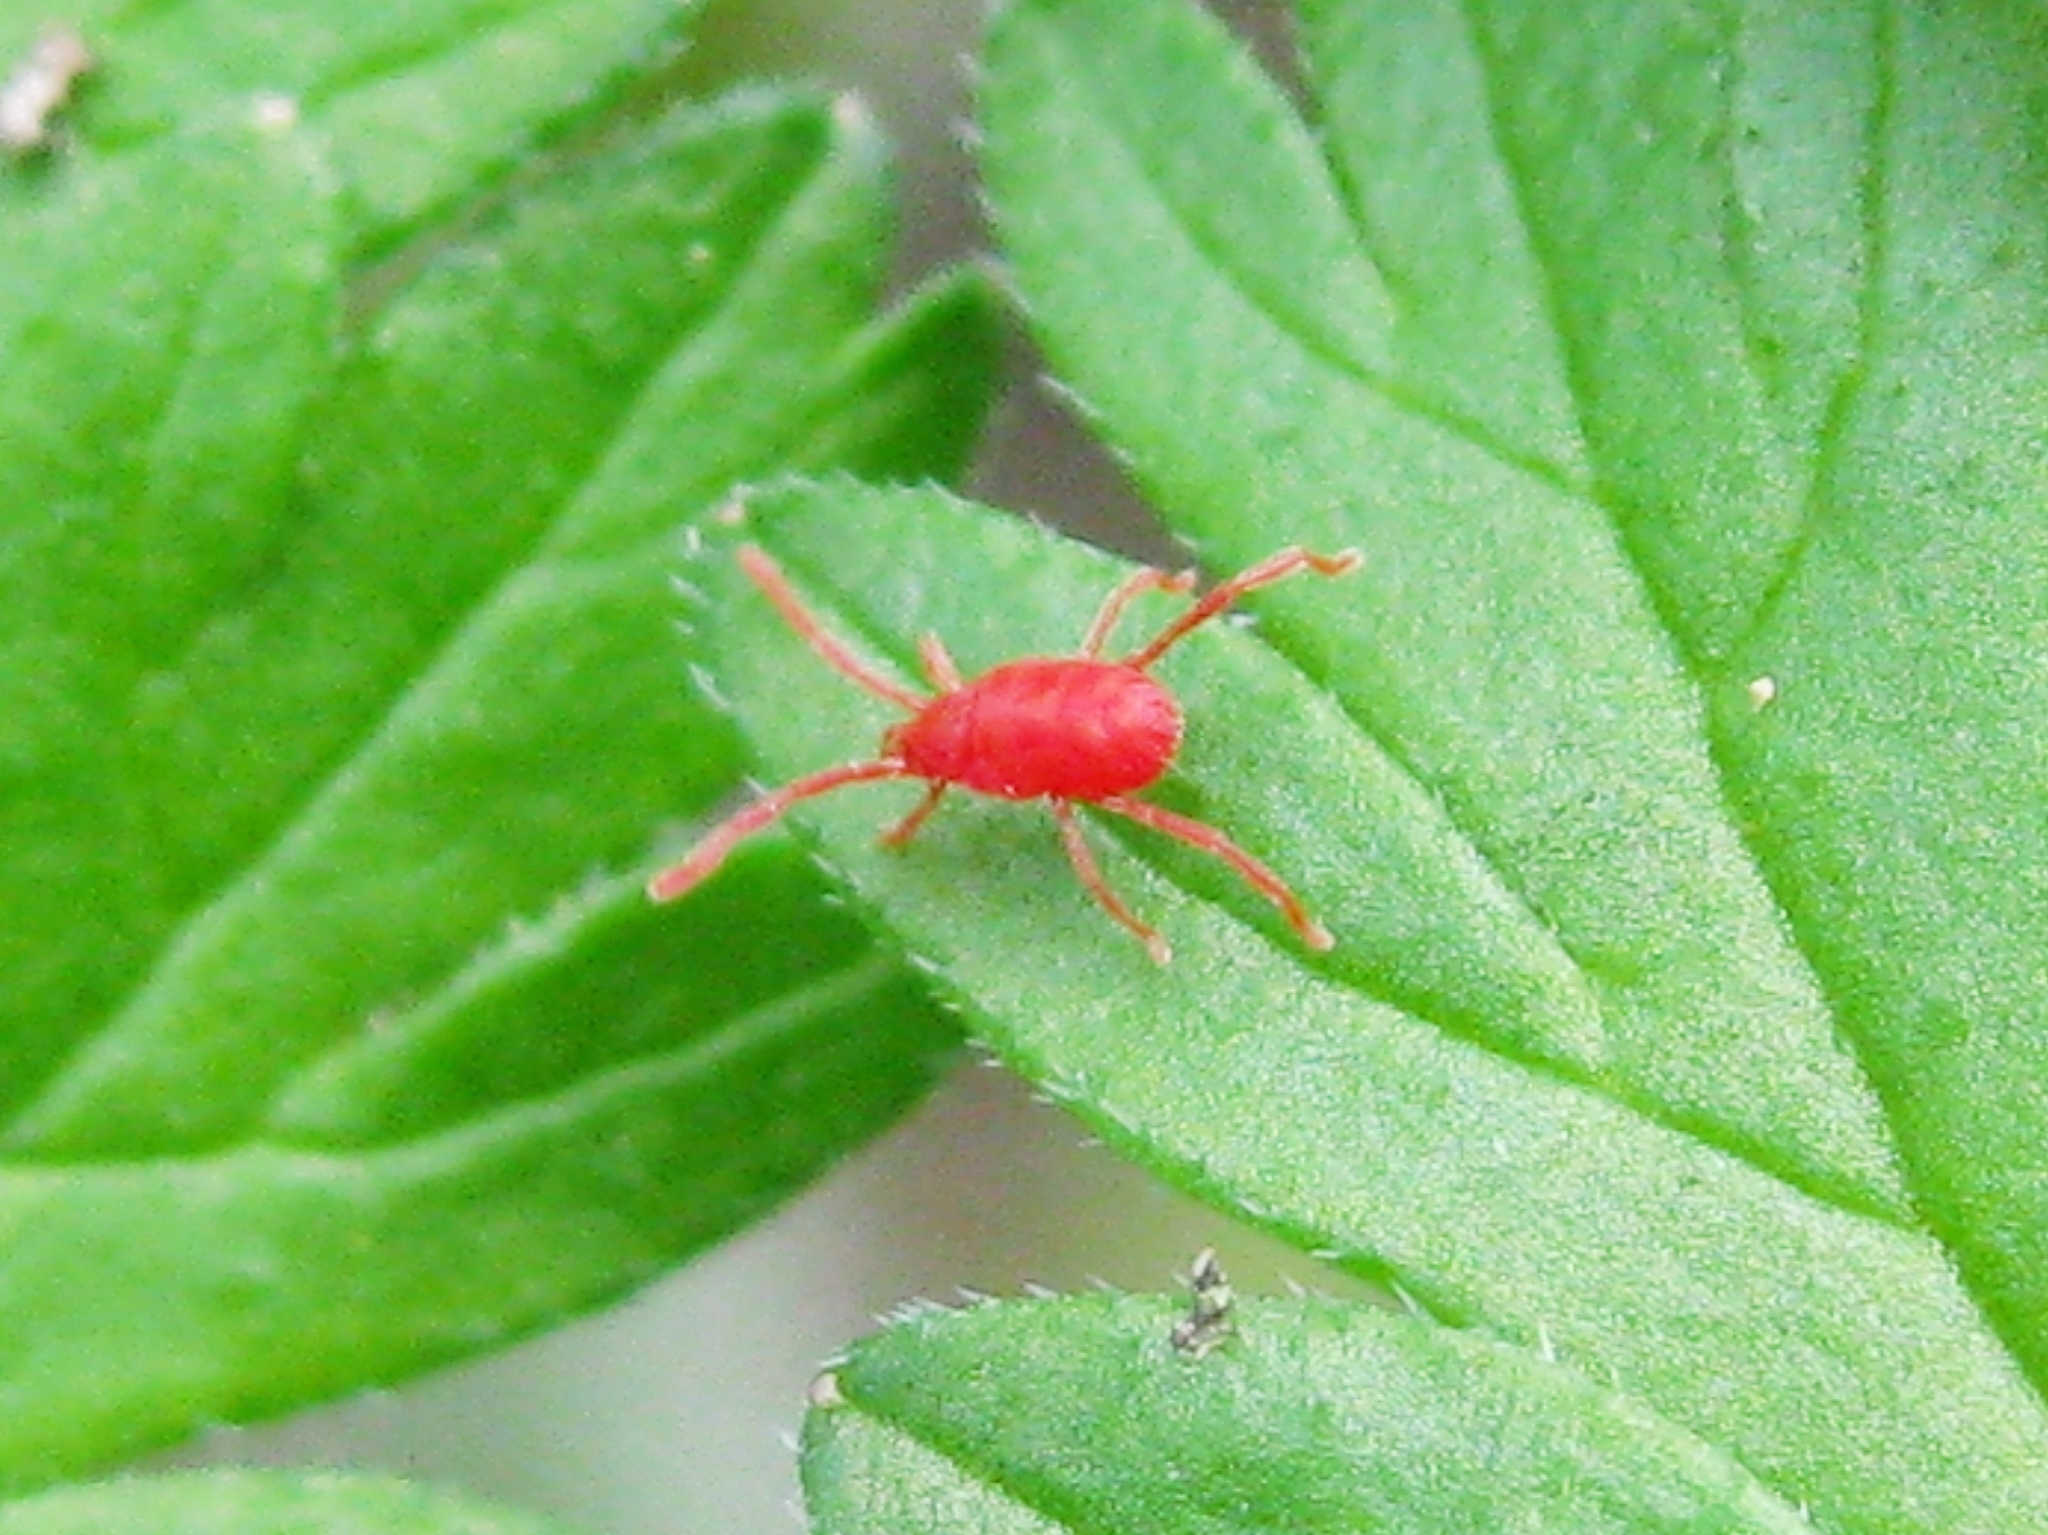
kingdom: Animalia
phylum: Arthropoda
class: Arachnida
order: Trombidiformes
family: Erythraeidae
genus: Abrolophus
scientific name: Abrolophus
